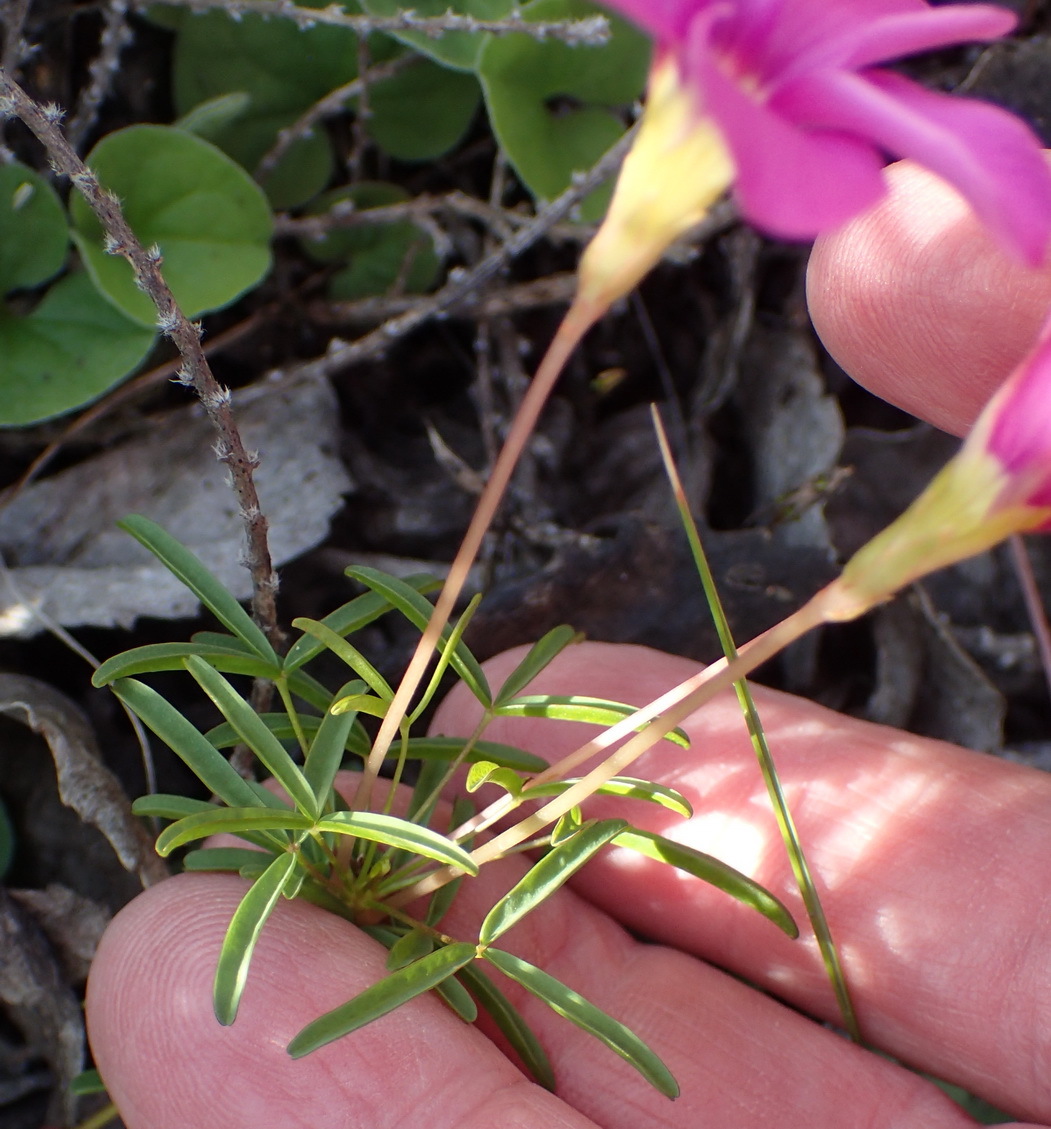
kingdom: Plantae
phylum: Tracheophyta
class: Magnoliopsida
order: Oxalidales
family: Oxalidaceae
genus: Oxalis
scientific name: Oxalis ciliaris
